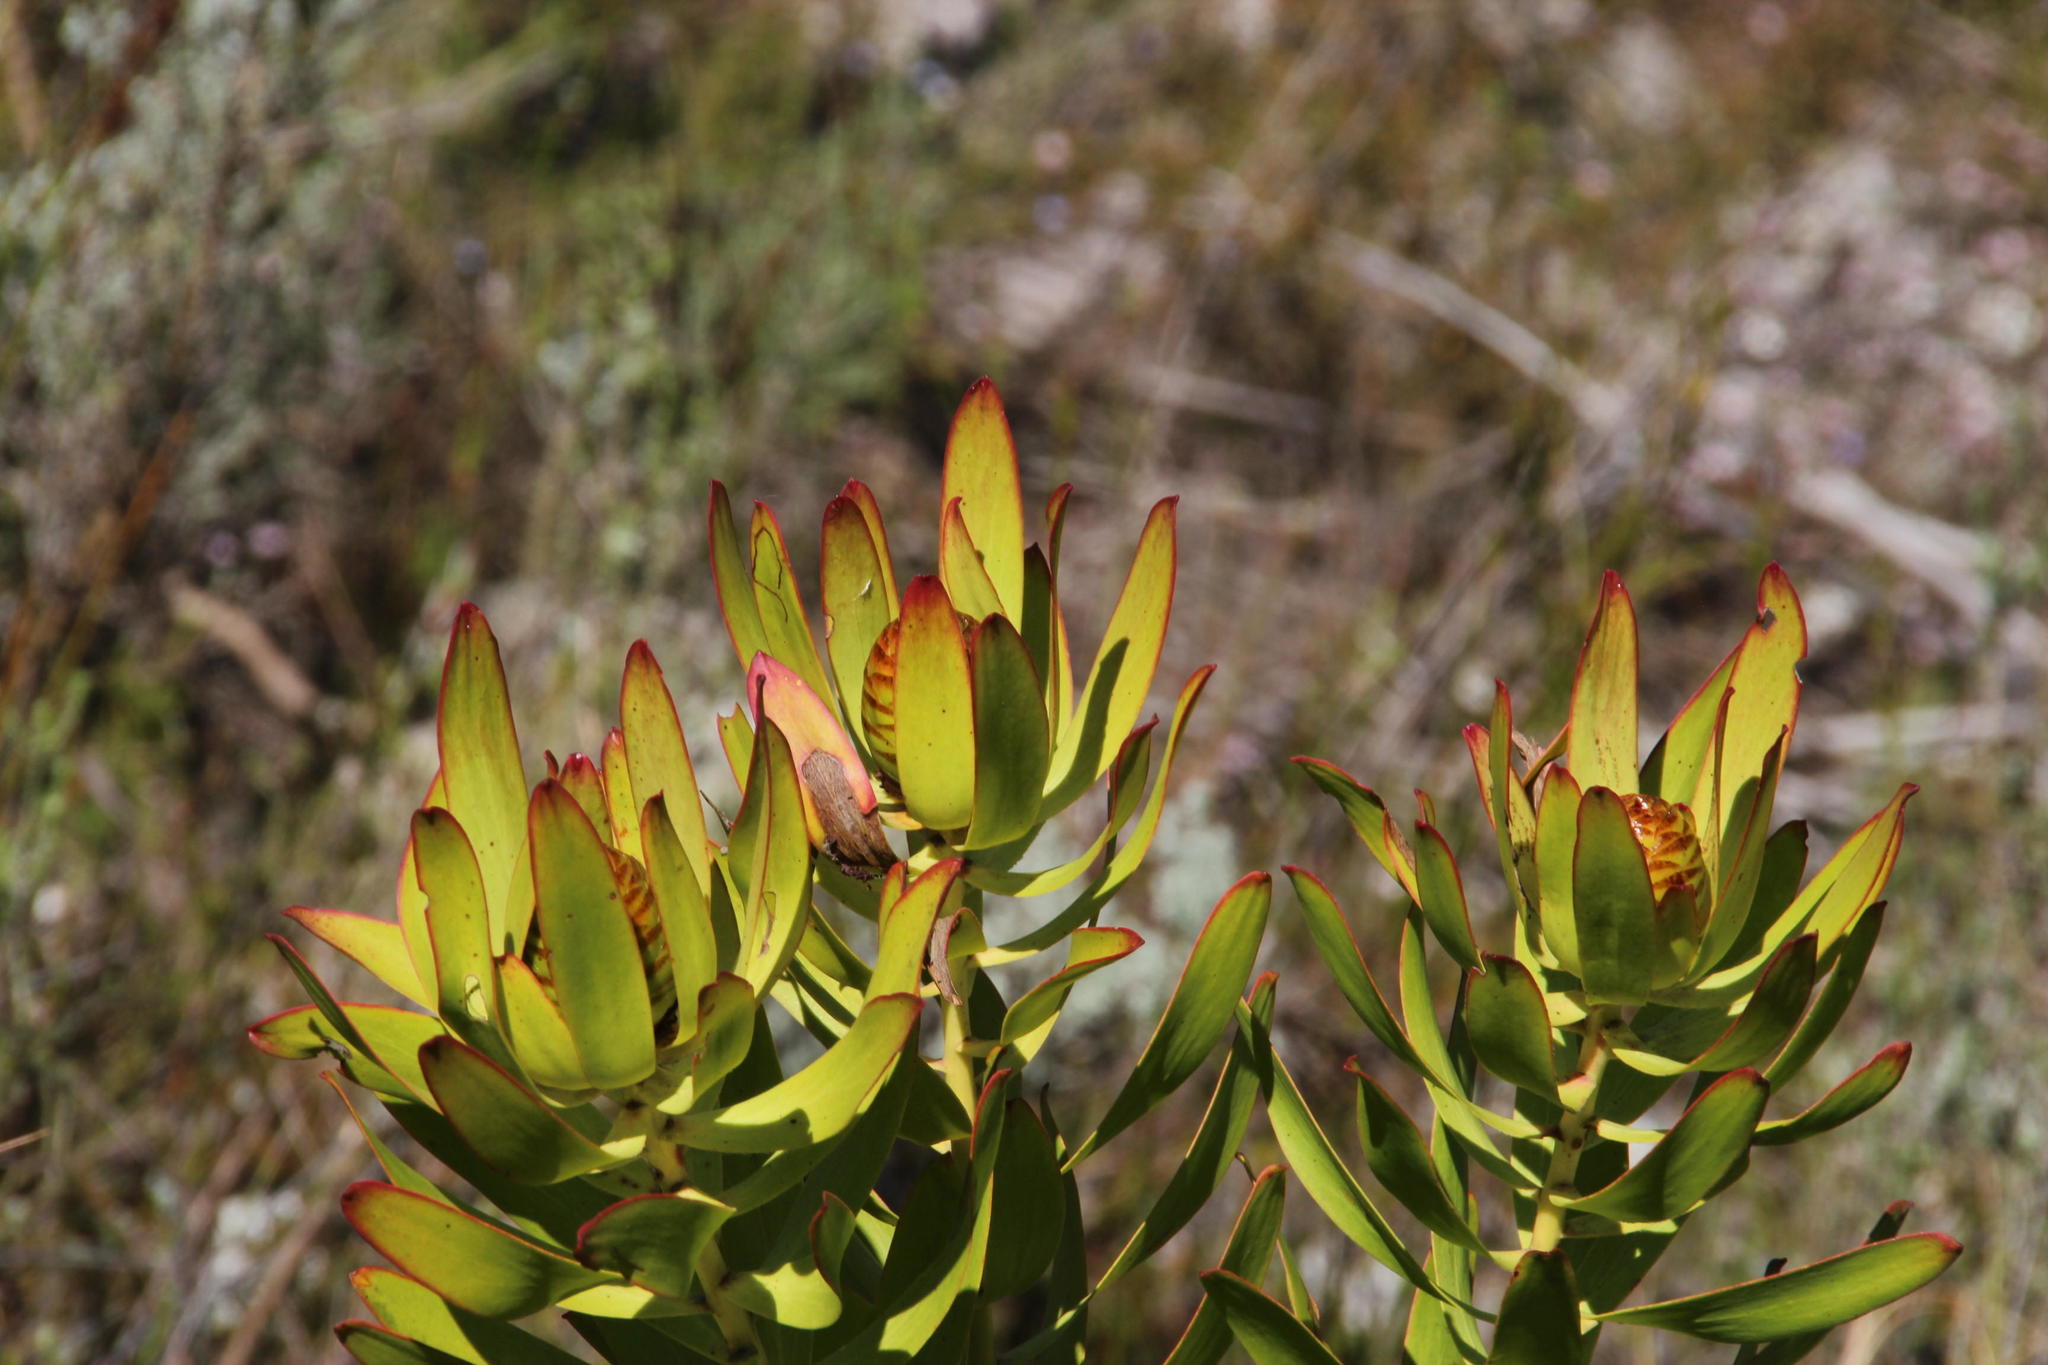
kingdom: Plantae
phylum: Tracheophyta
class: Magnoliopsida
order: Proteales
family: Proteaceae
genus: Leucadendron
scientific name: Leucadendron microcephalum
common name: Oilbract conebush
